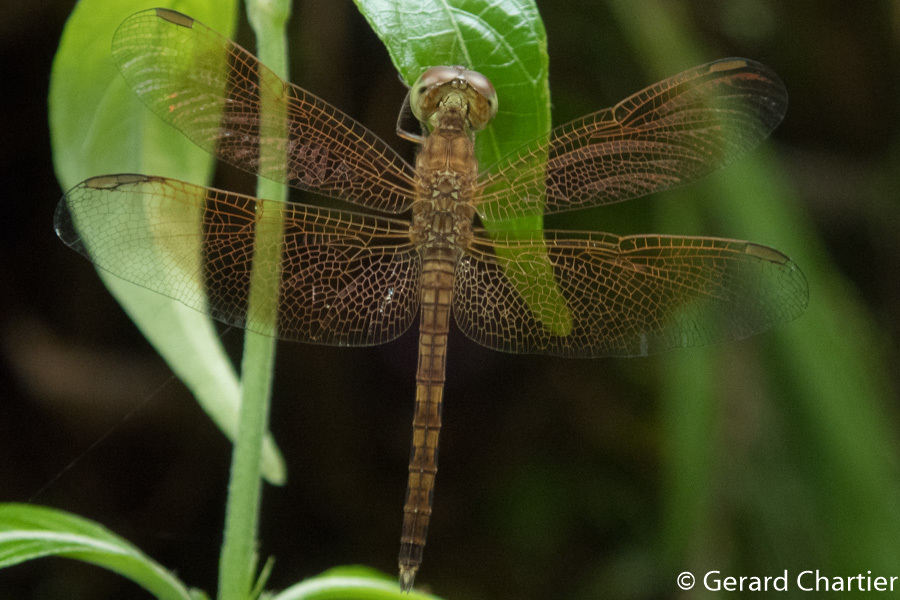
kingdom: Animalia
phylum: Arthropoda
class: Insecta
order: Odonata
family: Libellulidae
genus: Neurothemis
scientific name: Neurothemis fluctuans
